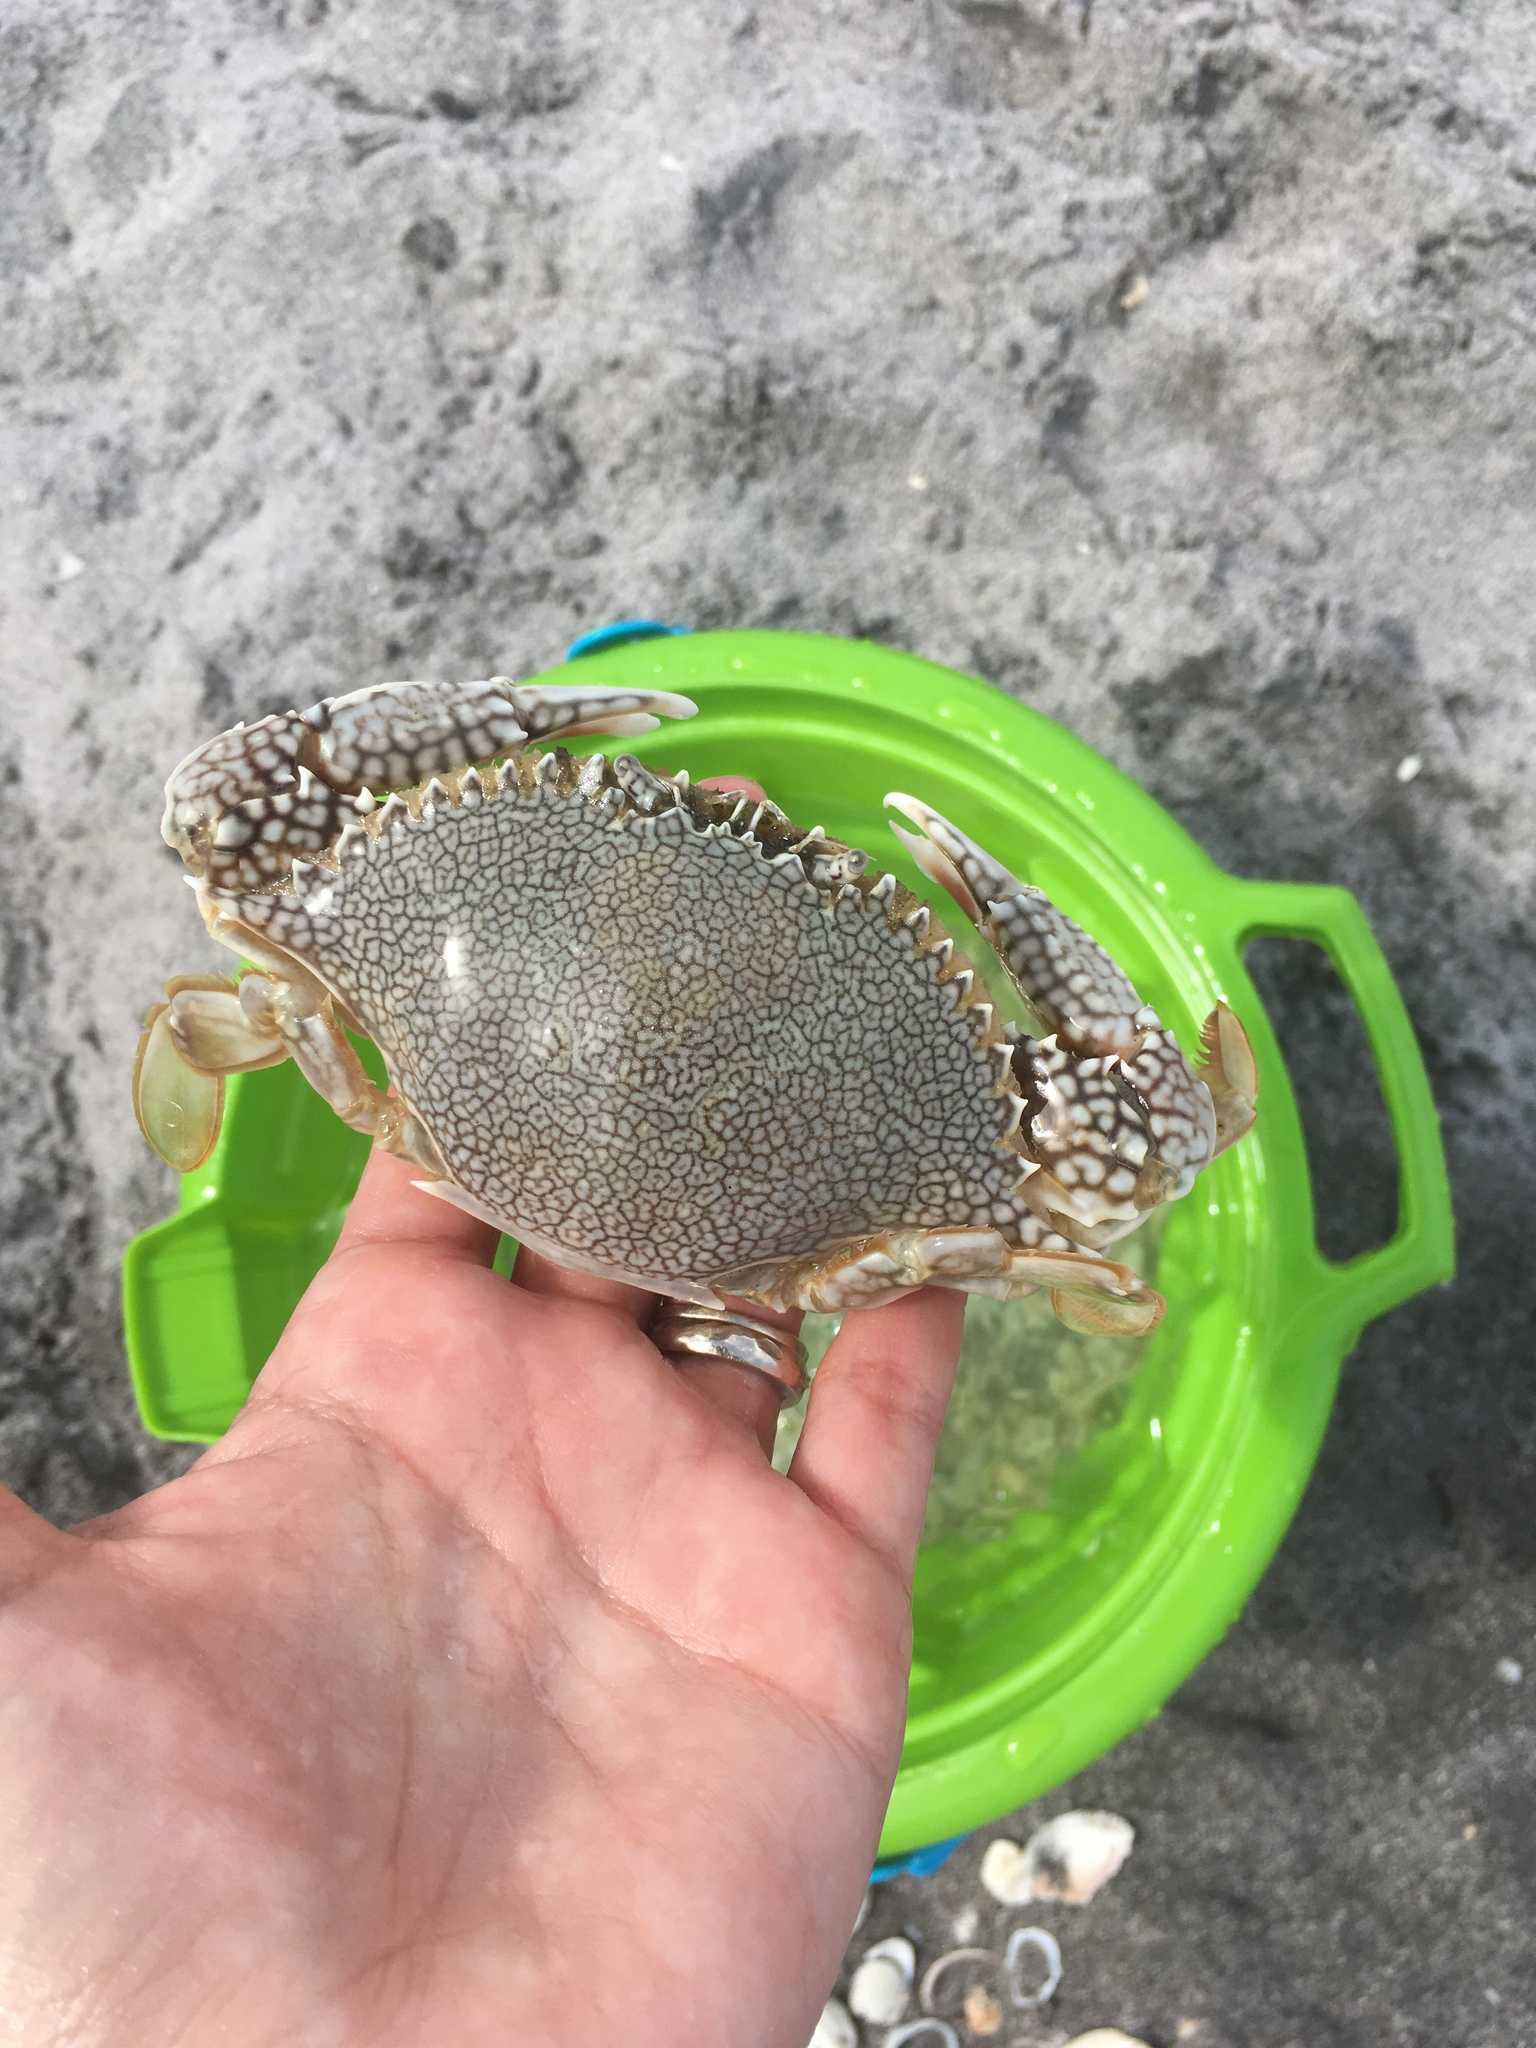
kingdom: Animalia
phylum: Arthropoda
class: Malacostraca
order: Decapoda
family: Portunidae
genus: Arenaeus
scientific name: Arenaeus cribrarius
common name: Speckled crab
